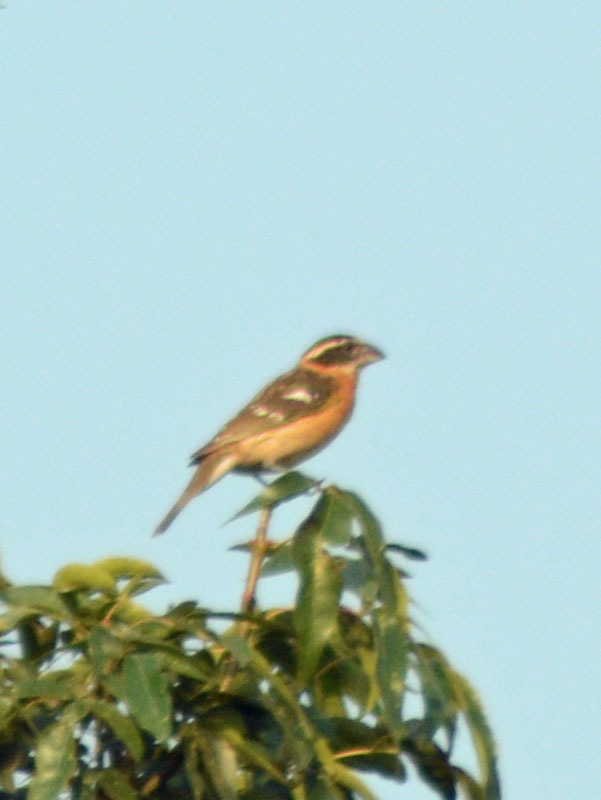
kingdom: Animalia
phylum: Chordata
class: Aves
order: Passeriformes
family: Cardinalidae
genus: Pheucticus
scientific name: Pheucticus melanocephalus
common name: Black-headed grosbeak
